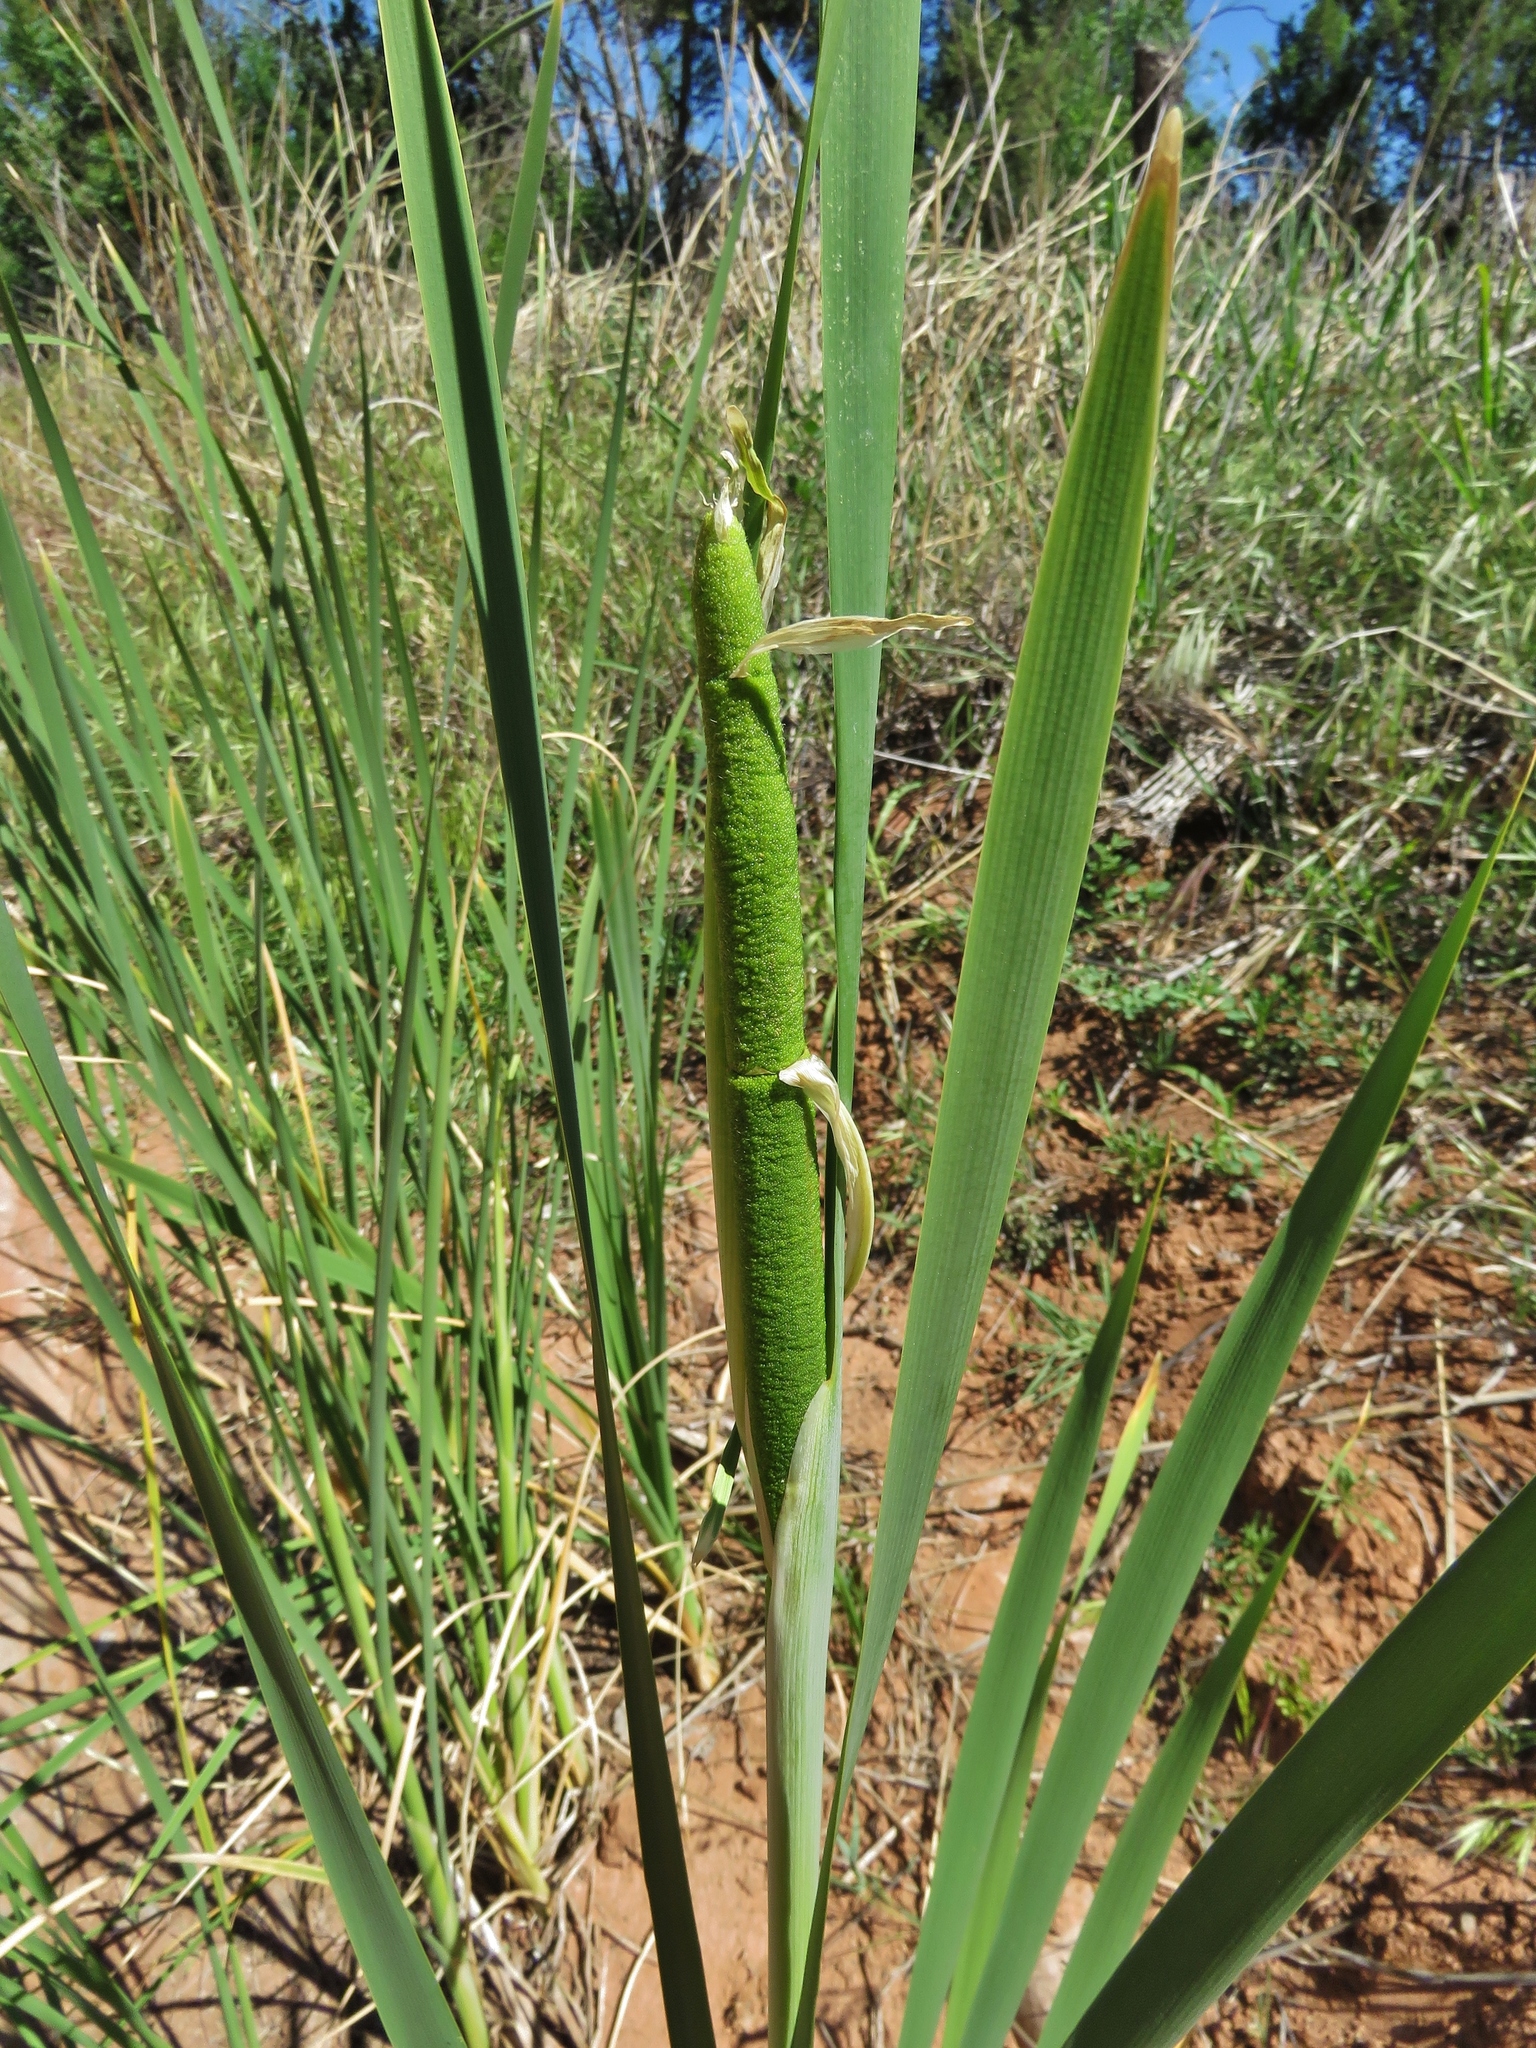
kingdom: Plantae
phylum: Tracheophyta
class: Liliopsida
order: Poales
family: Typhaceae
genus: Typha
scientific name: Typha latifolia
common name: Broadleaf cattail
